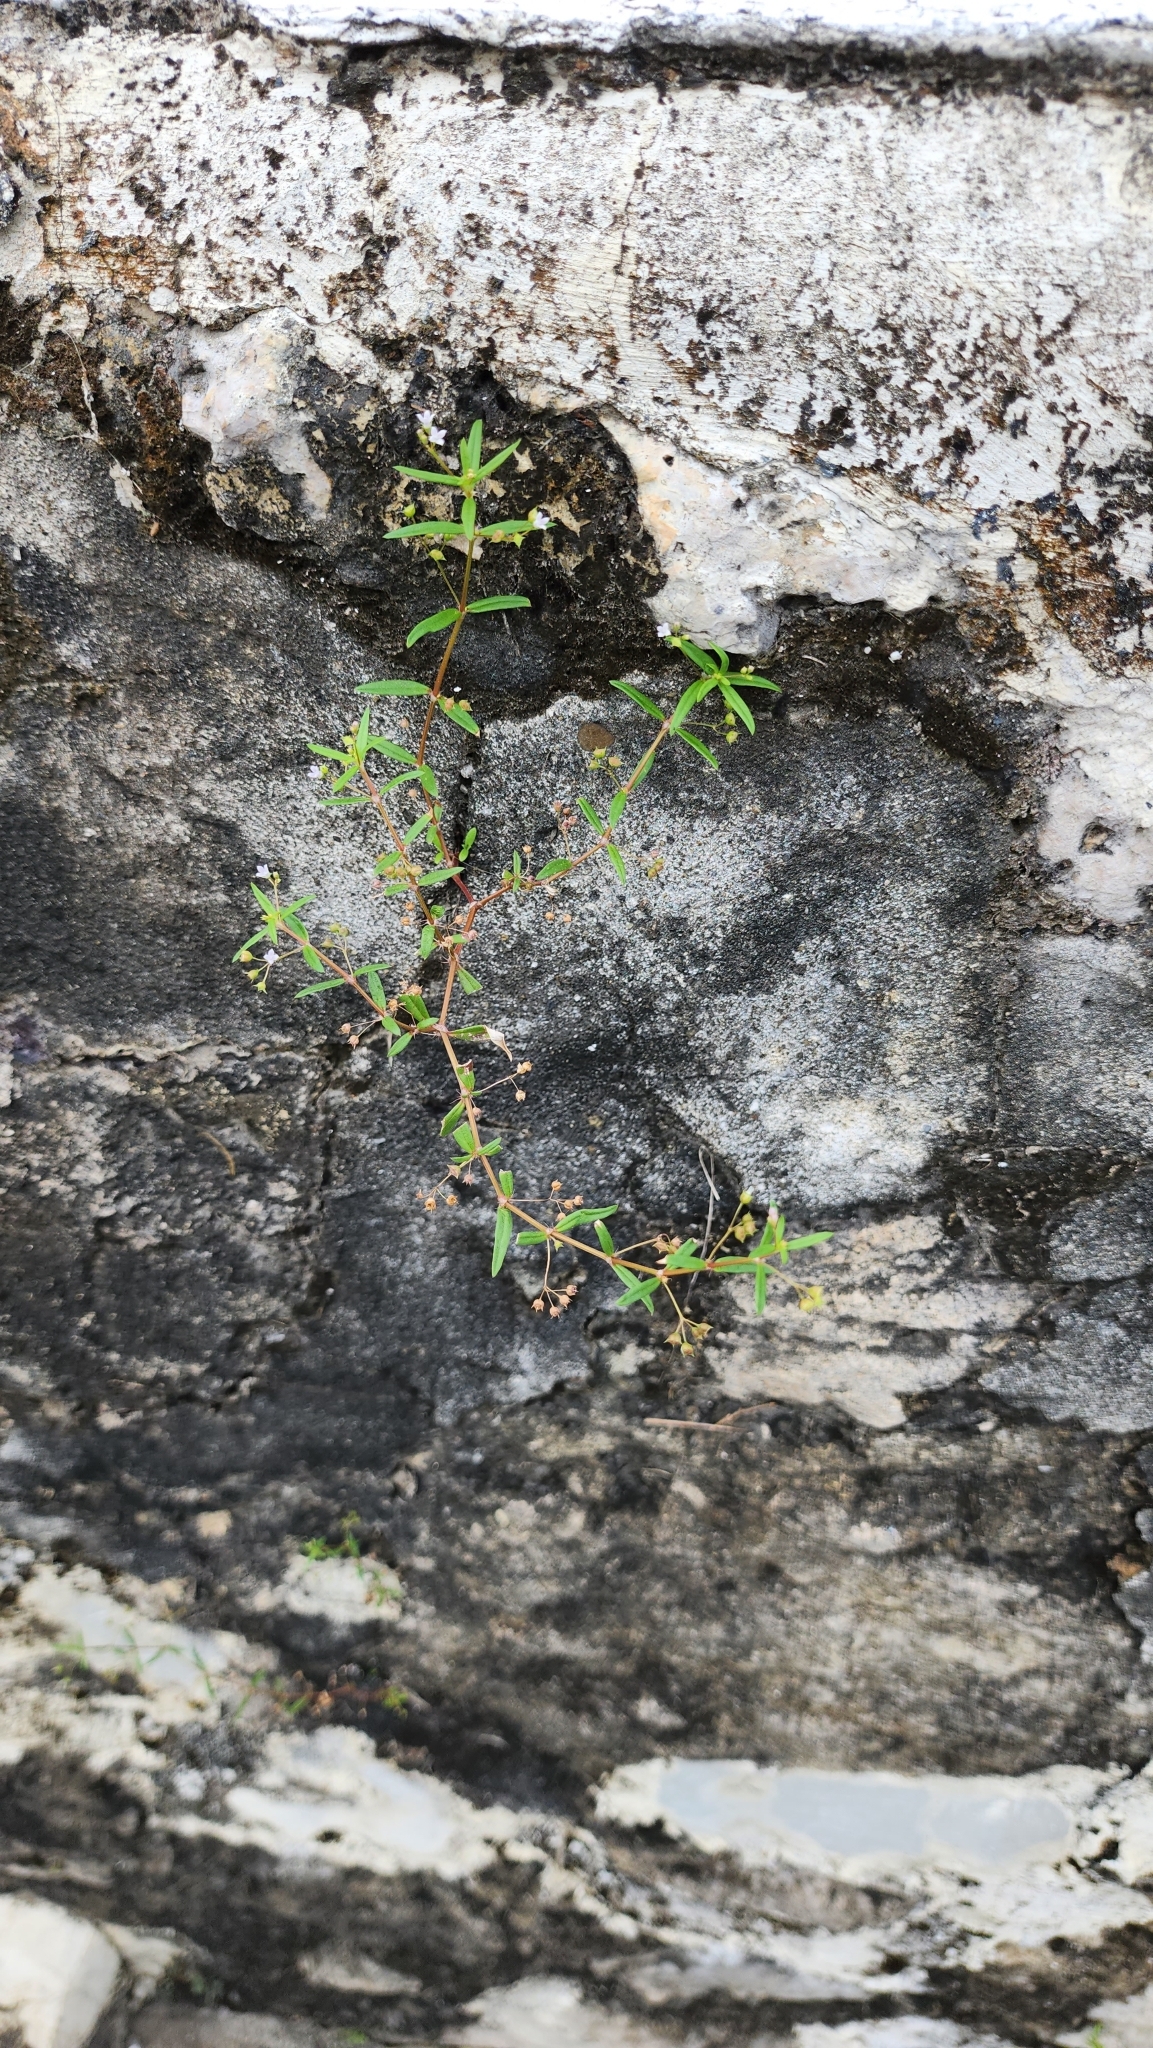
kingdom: Plantae
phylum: Tracheophyta
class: Magnoliopsida
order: Gentianales
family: Rubiaceae
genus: Oldenlandia
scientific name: Oldenlandia corymbosa
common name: Flat-top mille graines
